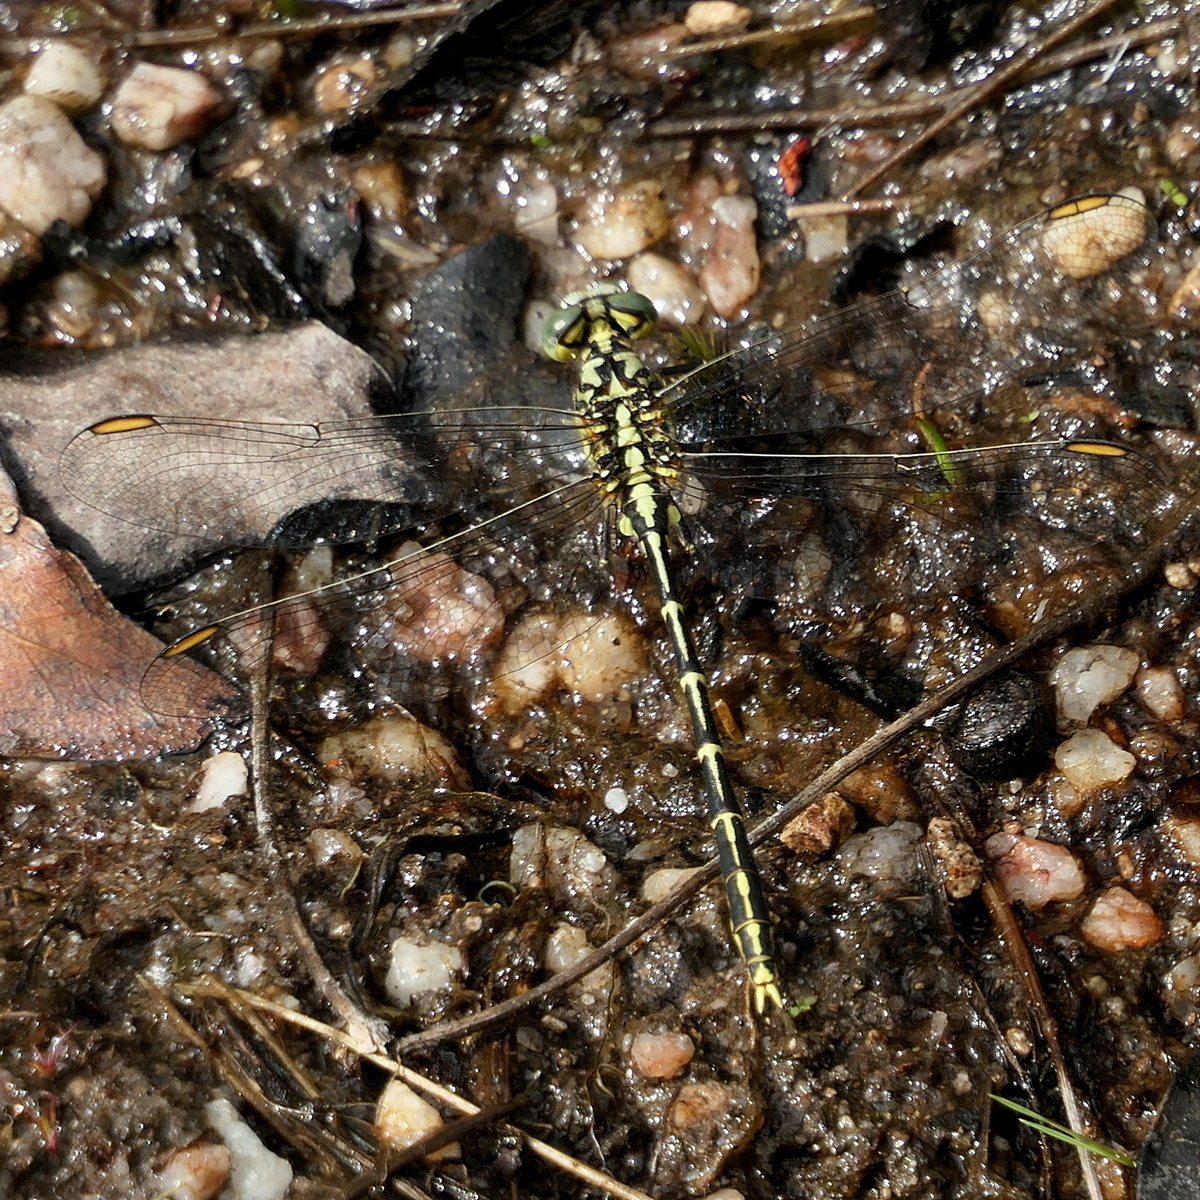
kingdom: Animalia
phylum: Arthropoda
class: Insecta
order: Odonata
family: Gomphidae
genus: Austrogomphus
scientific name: Austrogomphus guerini
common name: Yellow-striped hunter
